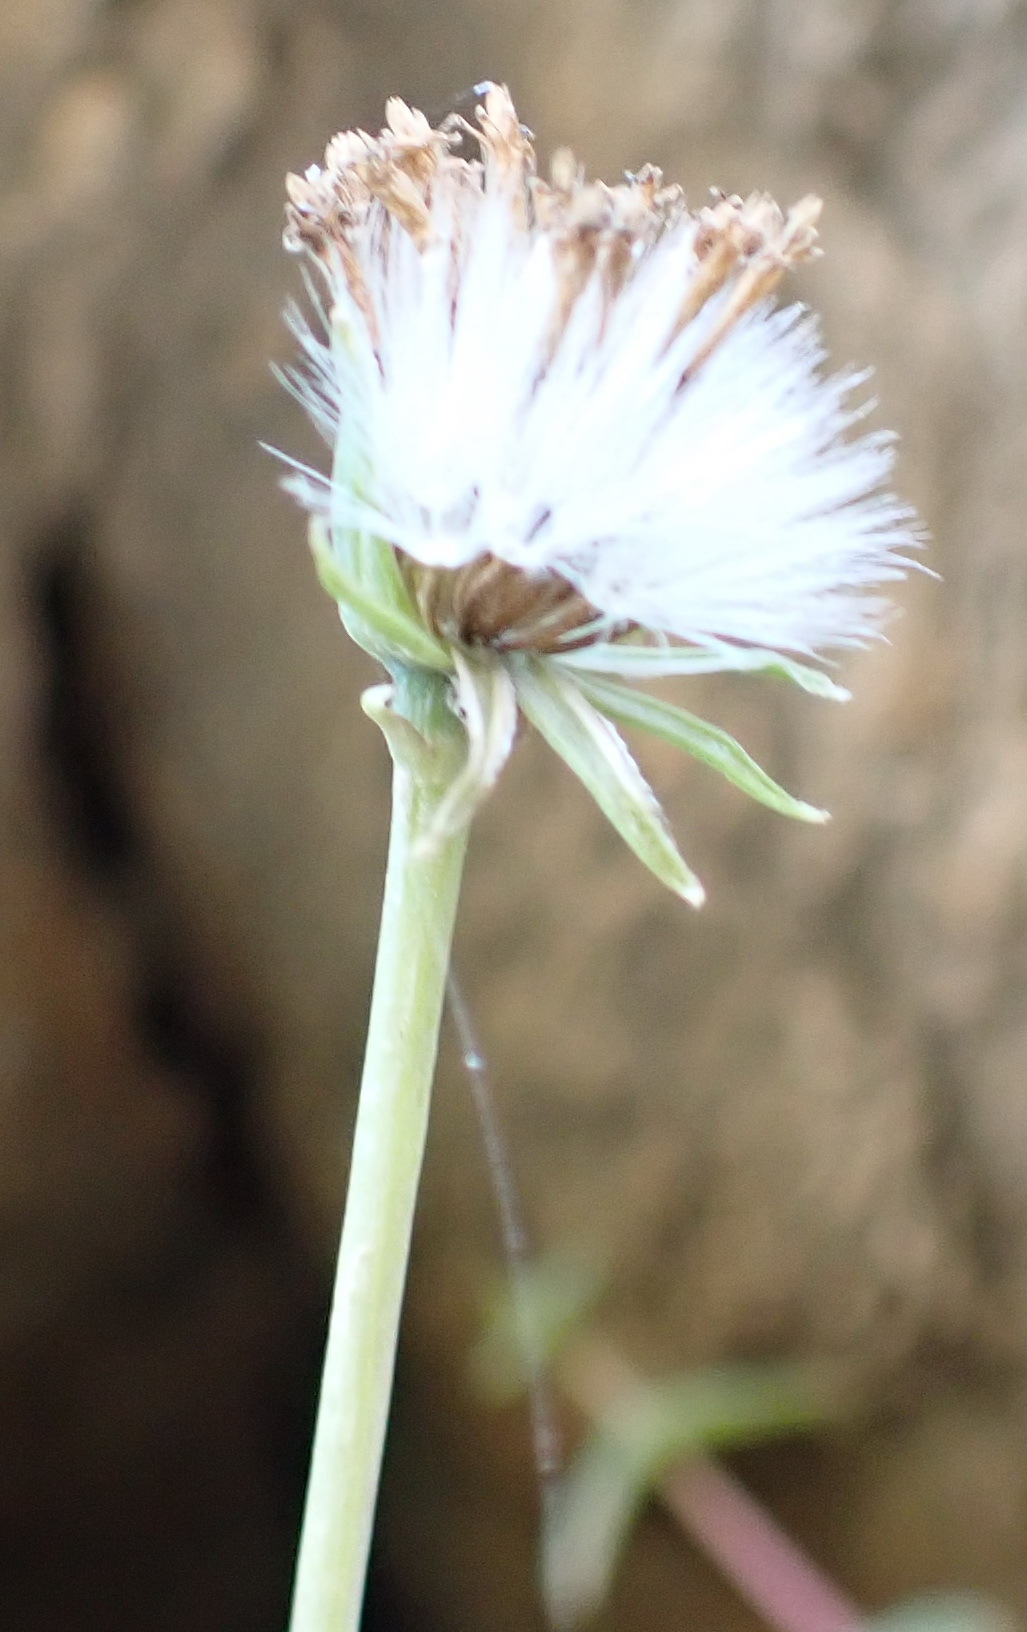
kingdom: Plantae
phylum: Tracheophyta
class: Magnoliopsida
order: Asterales
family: Asteraceae
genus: Curio
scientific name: Curio talinoides
